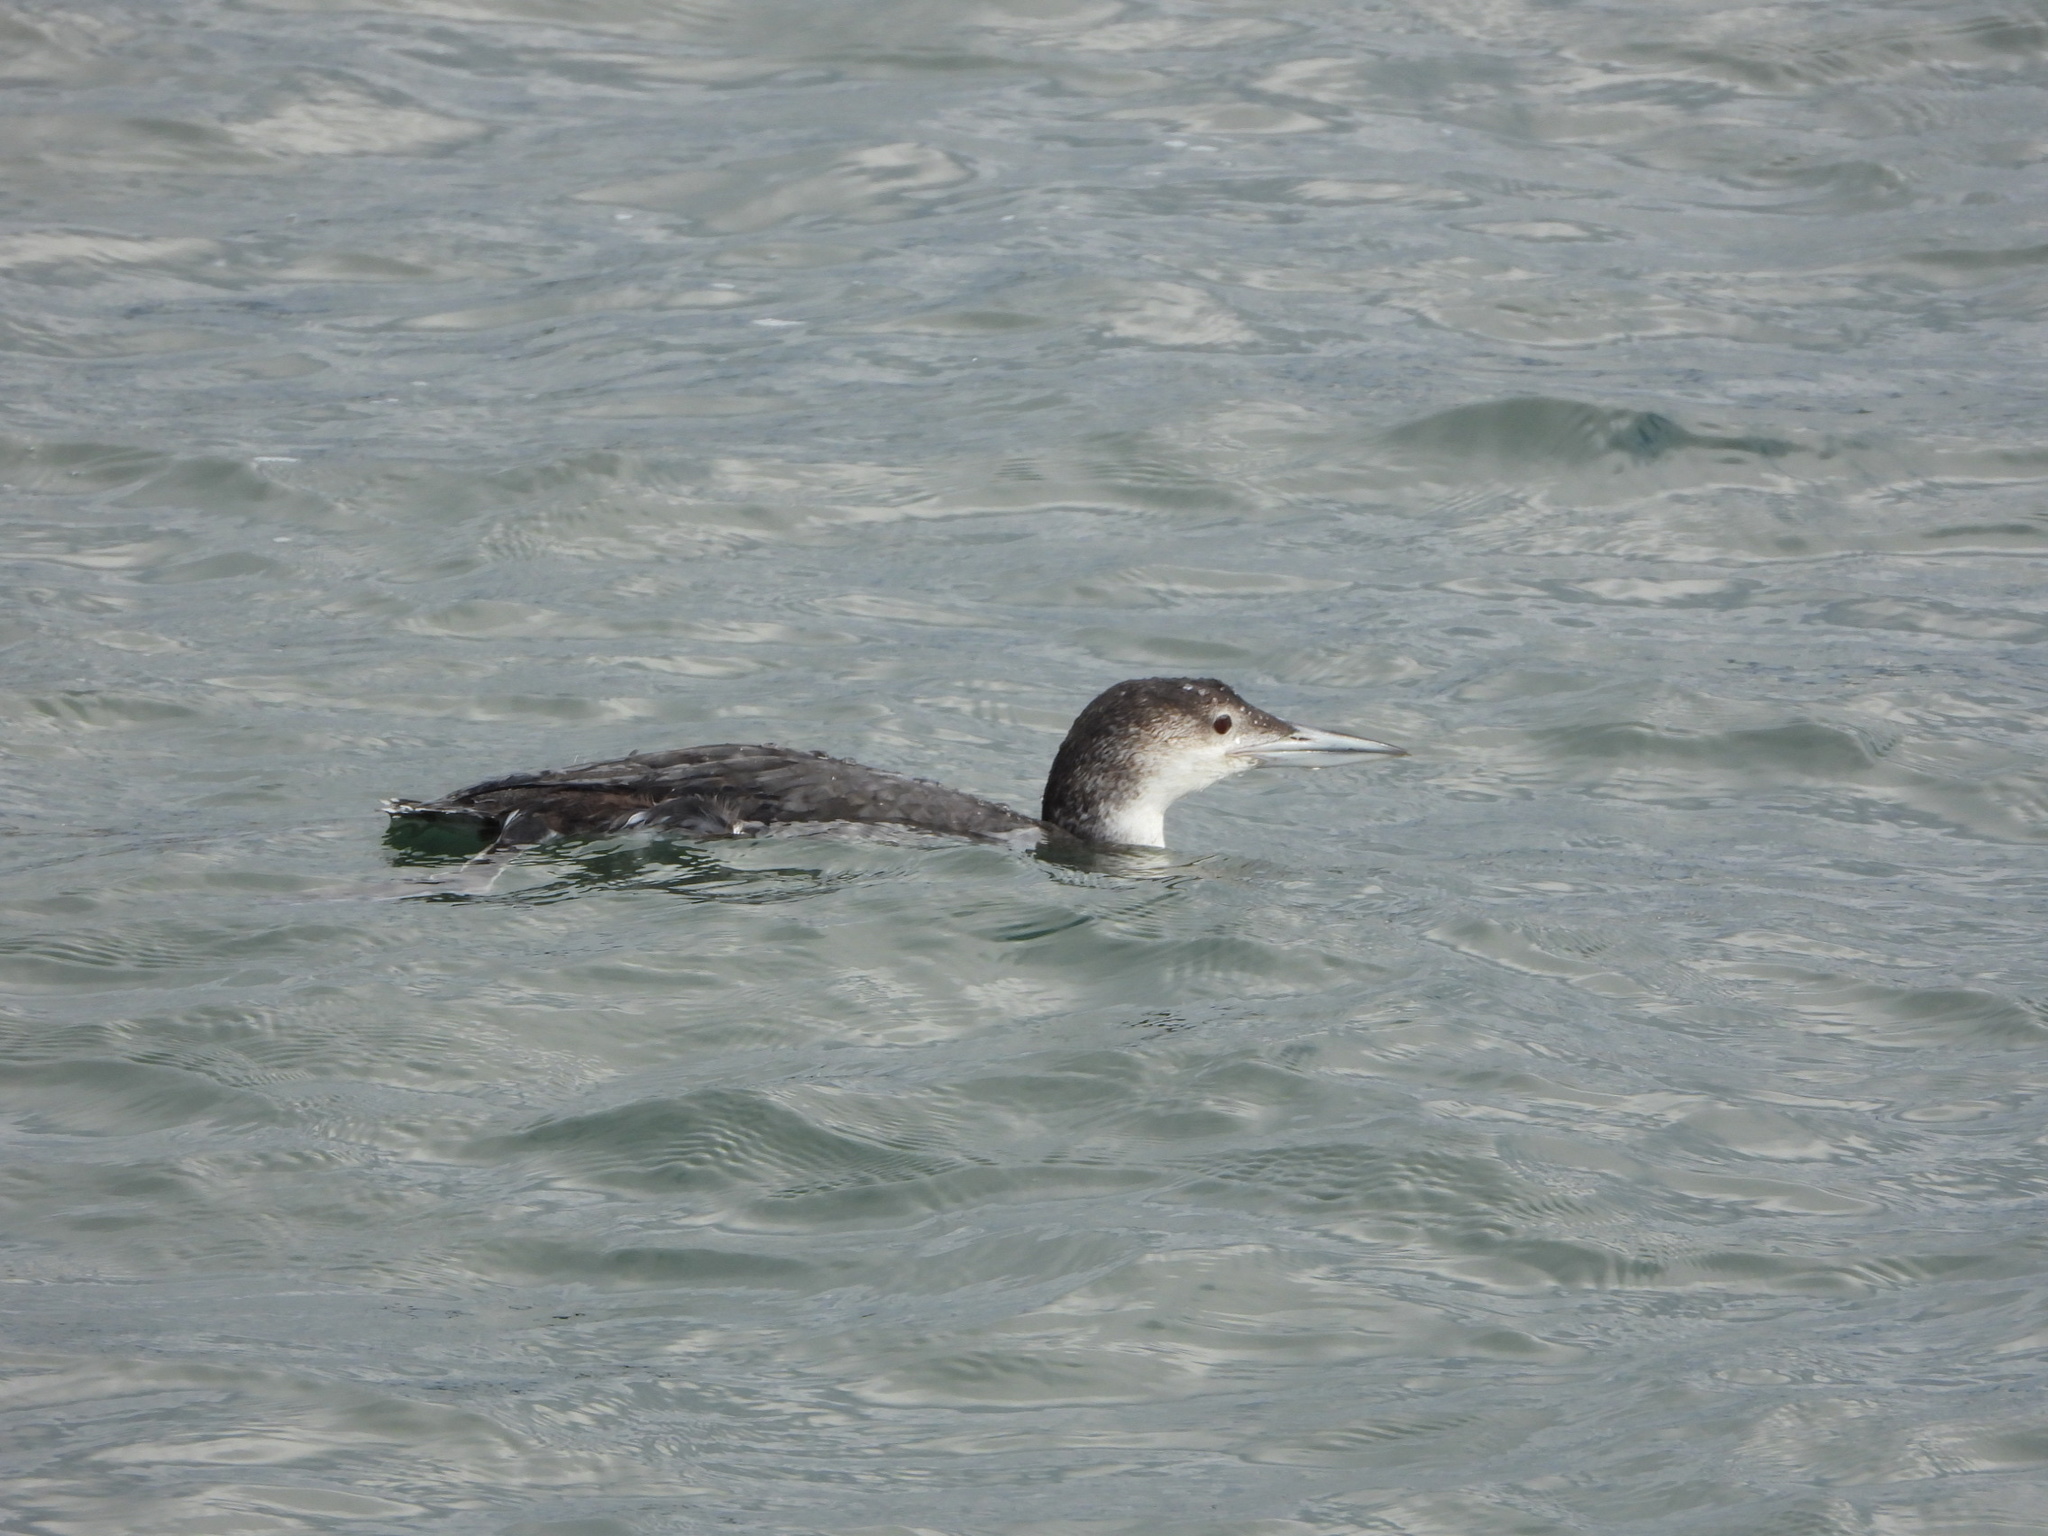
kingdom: Animalia
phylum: Chordata
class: Aves
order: Gaviiformes
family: Gaviidae
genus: Gavia
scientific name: Gavia immer
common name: Common loon
